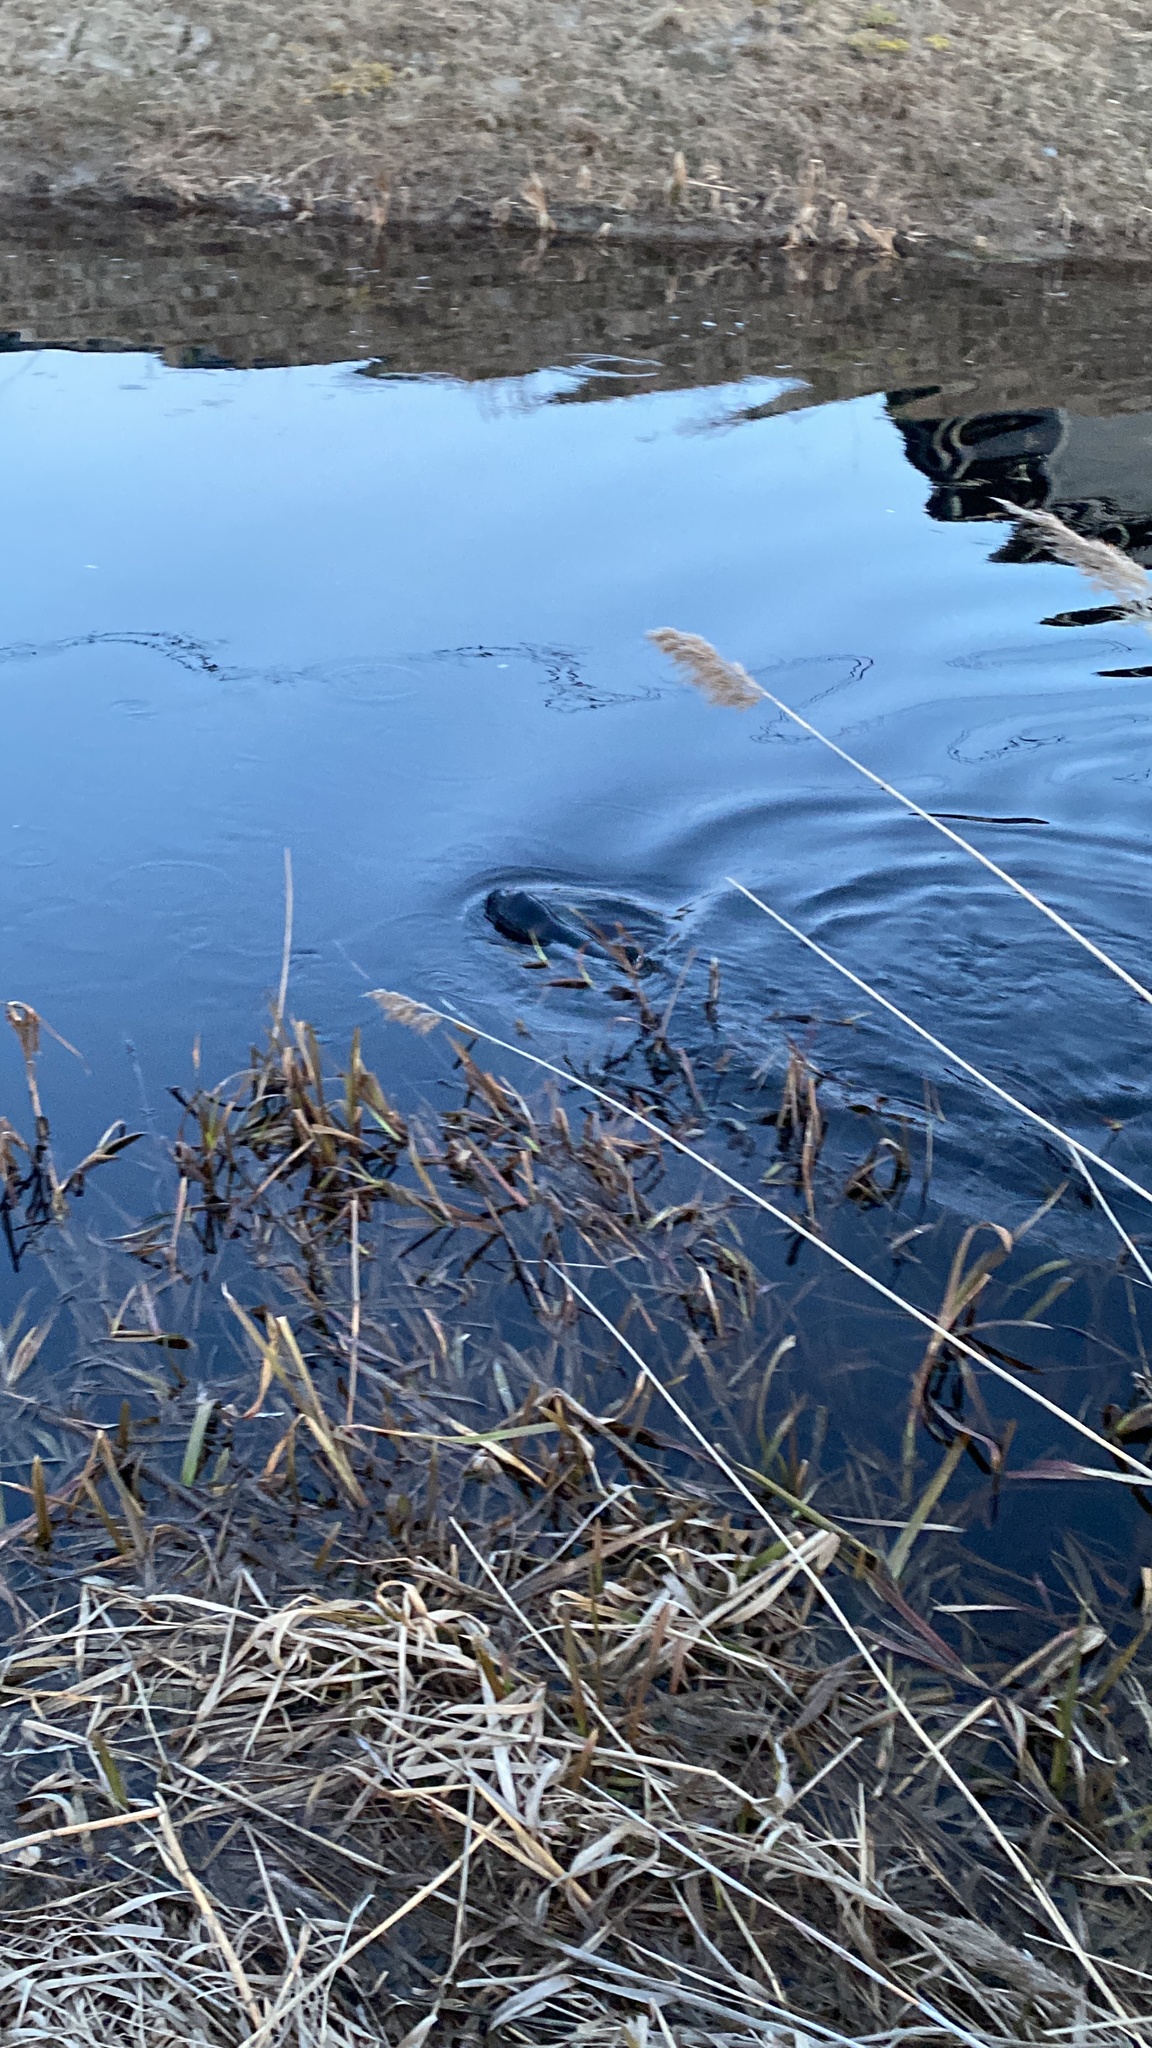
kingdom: Animalia
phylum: Chordata
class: Mammalia
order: Carnivora
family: Phocidae
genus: Pusa
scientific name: Pusa hispida
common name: Ringed seal
